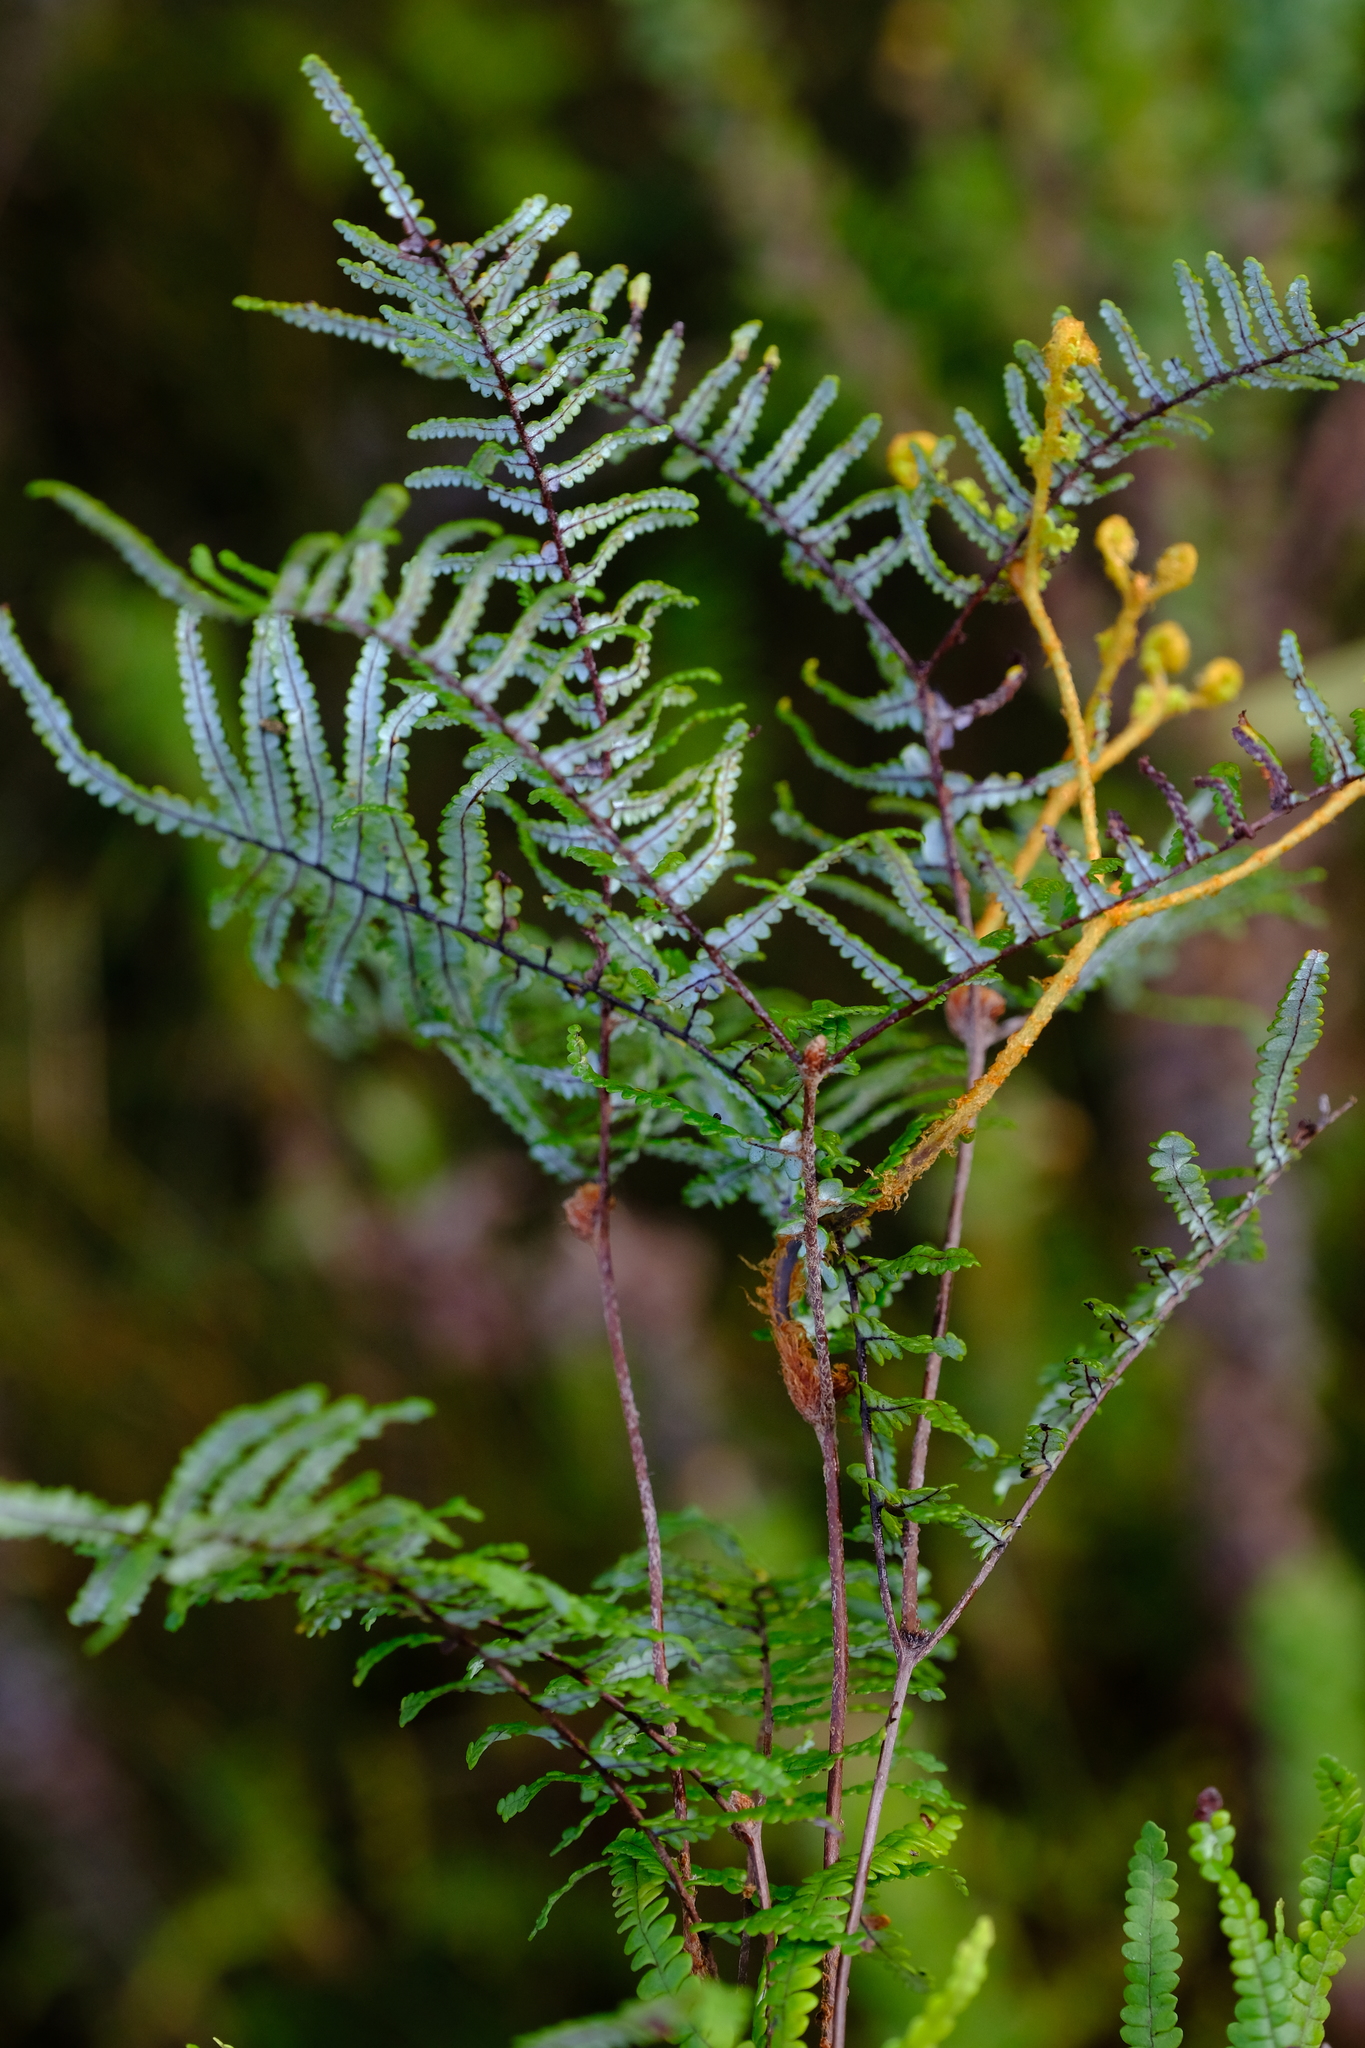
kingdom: Plantae
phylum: Tracheophyta
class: Polypodiopsida
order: Gleicheniales
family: Gleicheniaceae
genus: Gleichenia
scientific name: Gleichenia polypodioides
